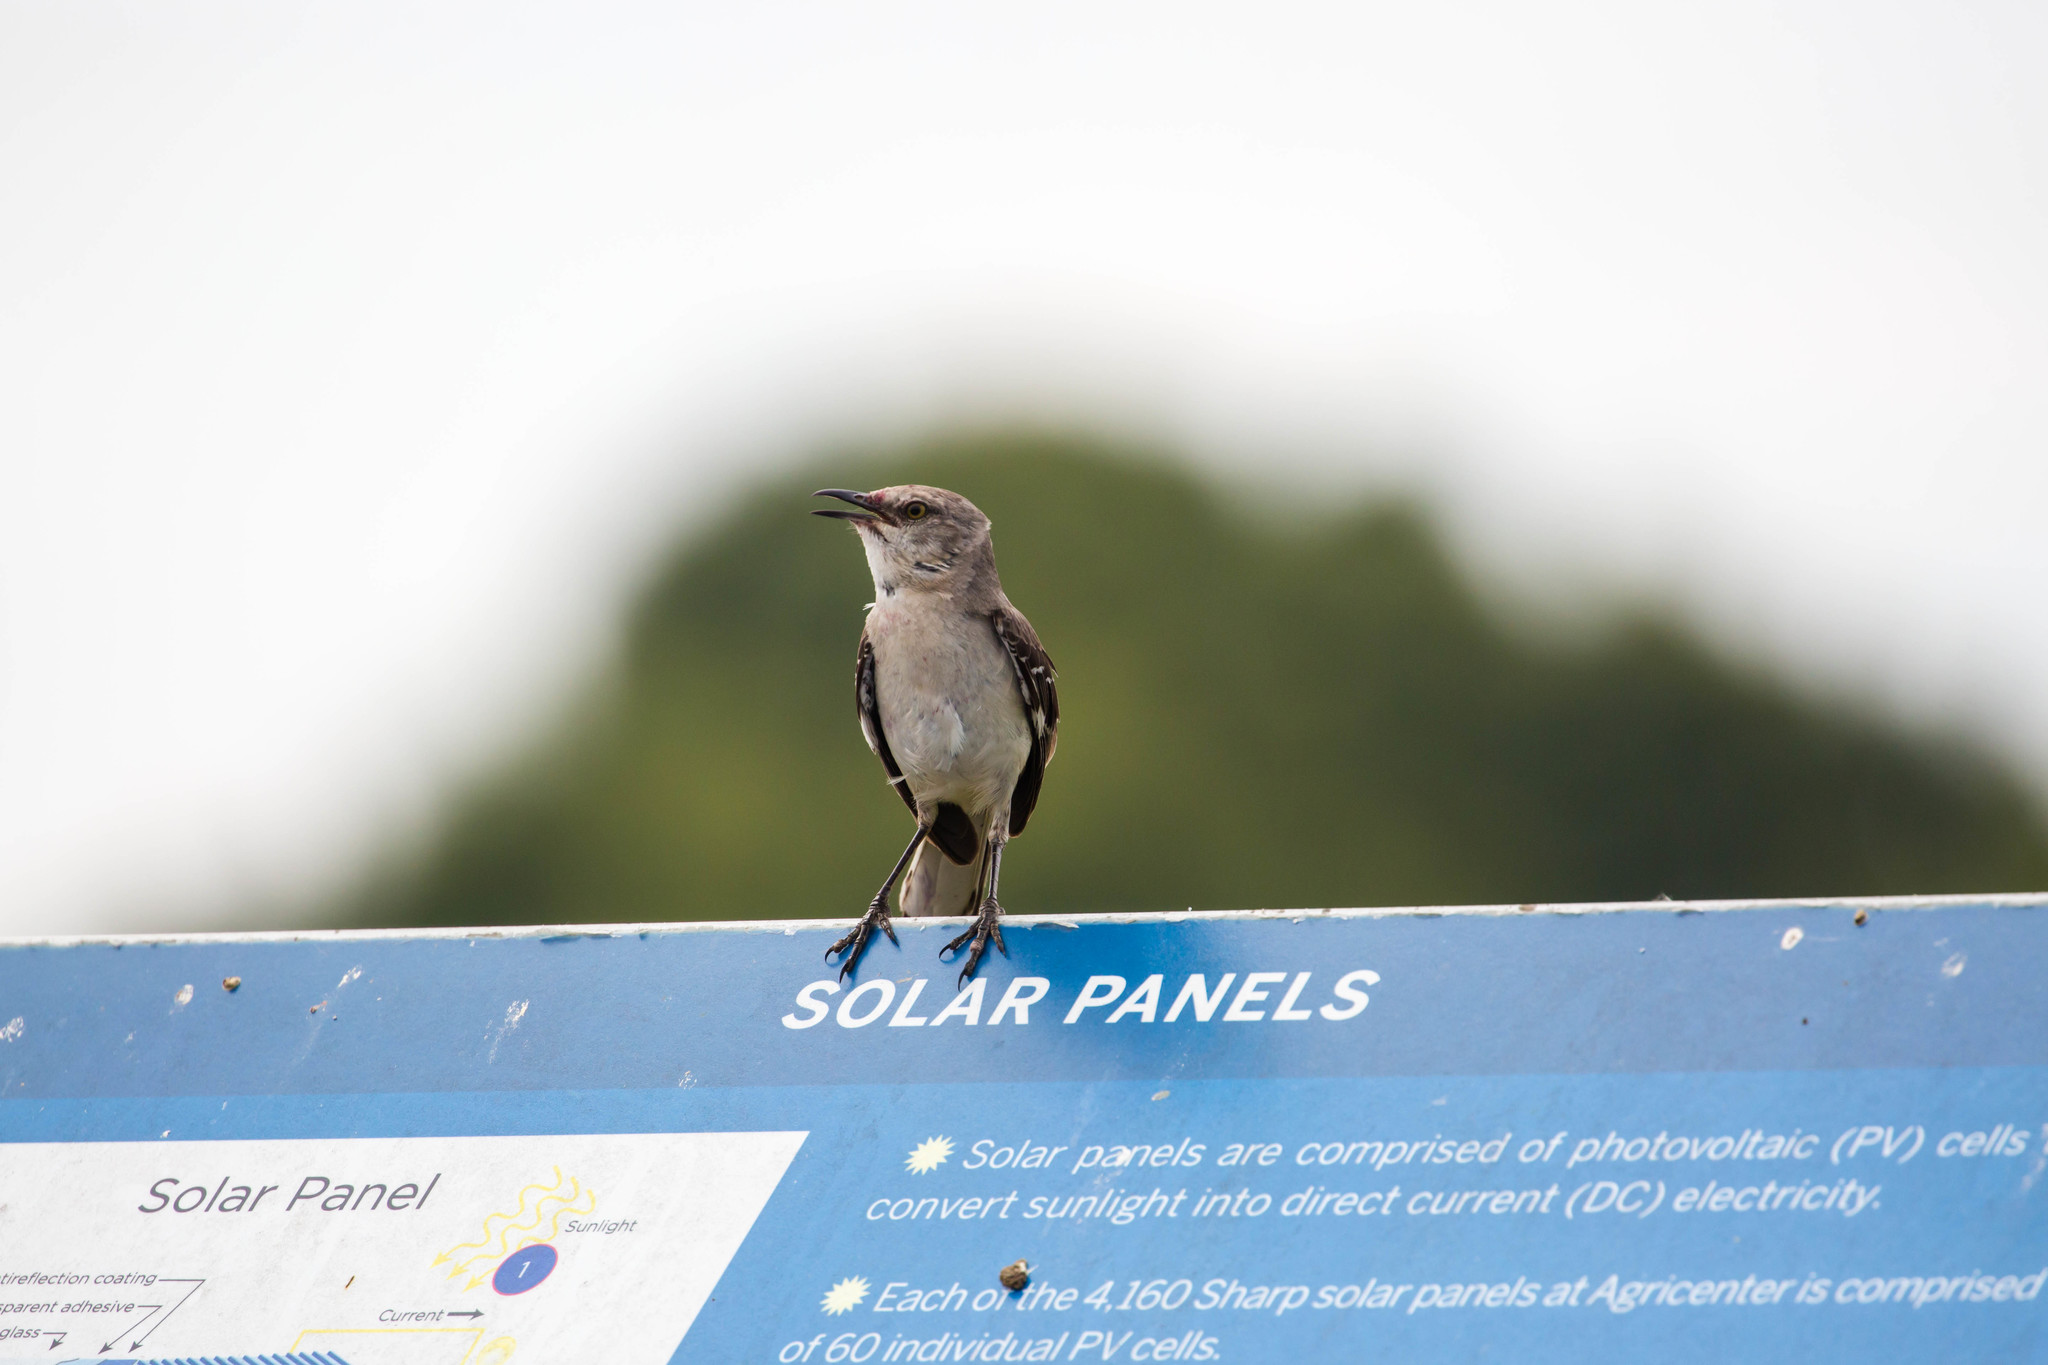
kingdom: Animalia
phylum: Chordata
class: Aves
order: Passeriformes
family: Mimidae
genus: Mimus
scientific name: Mimus polyglottos
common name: Northern mockingbird
